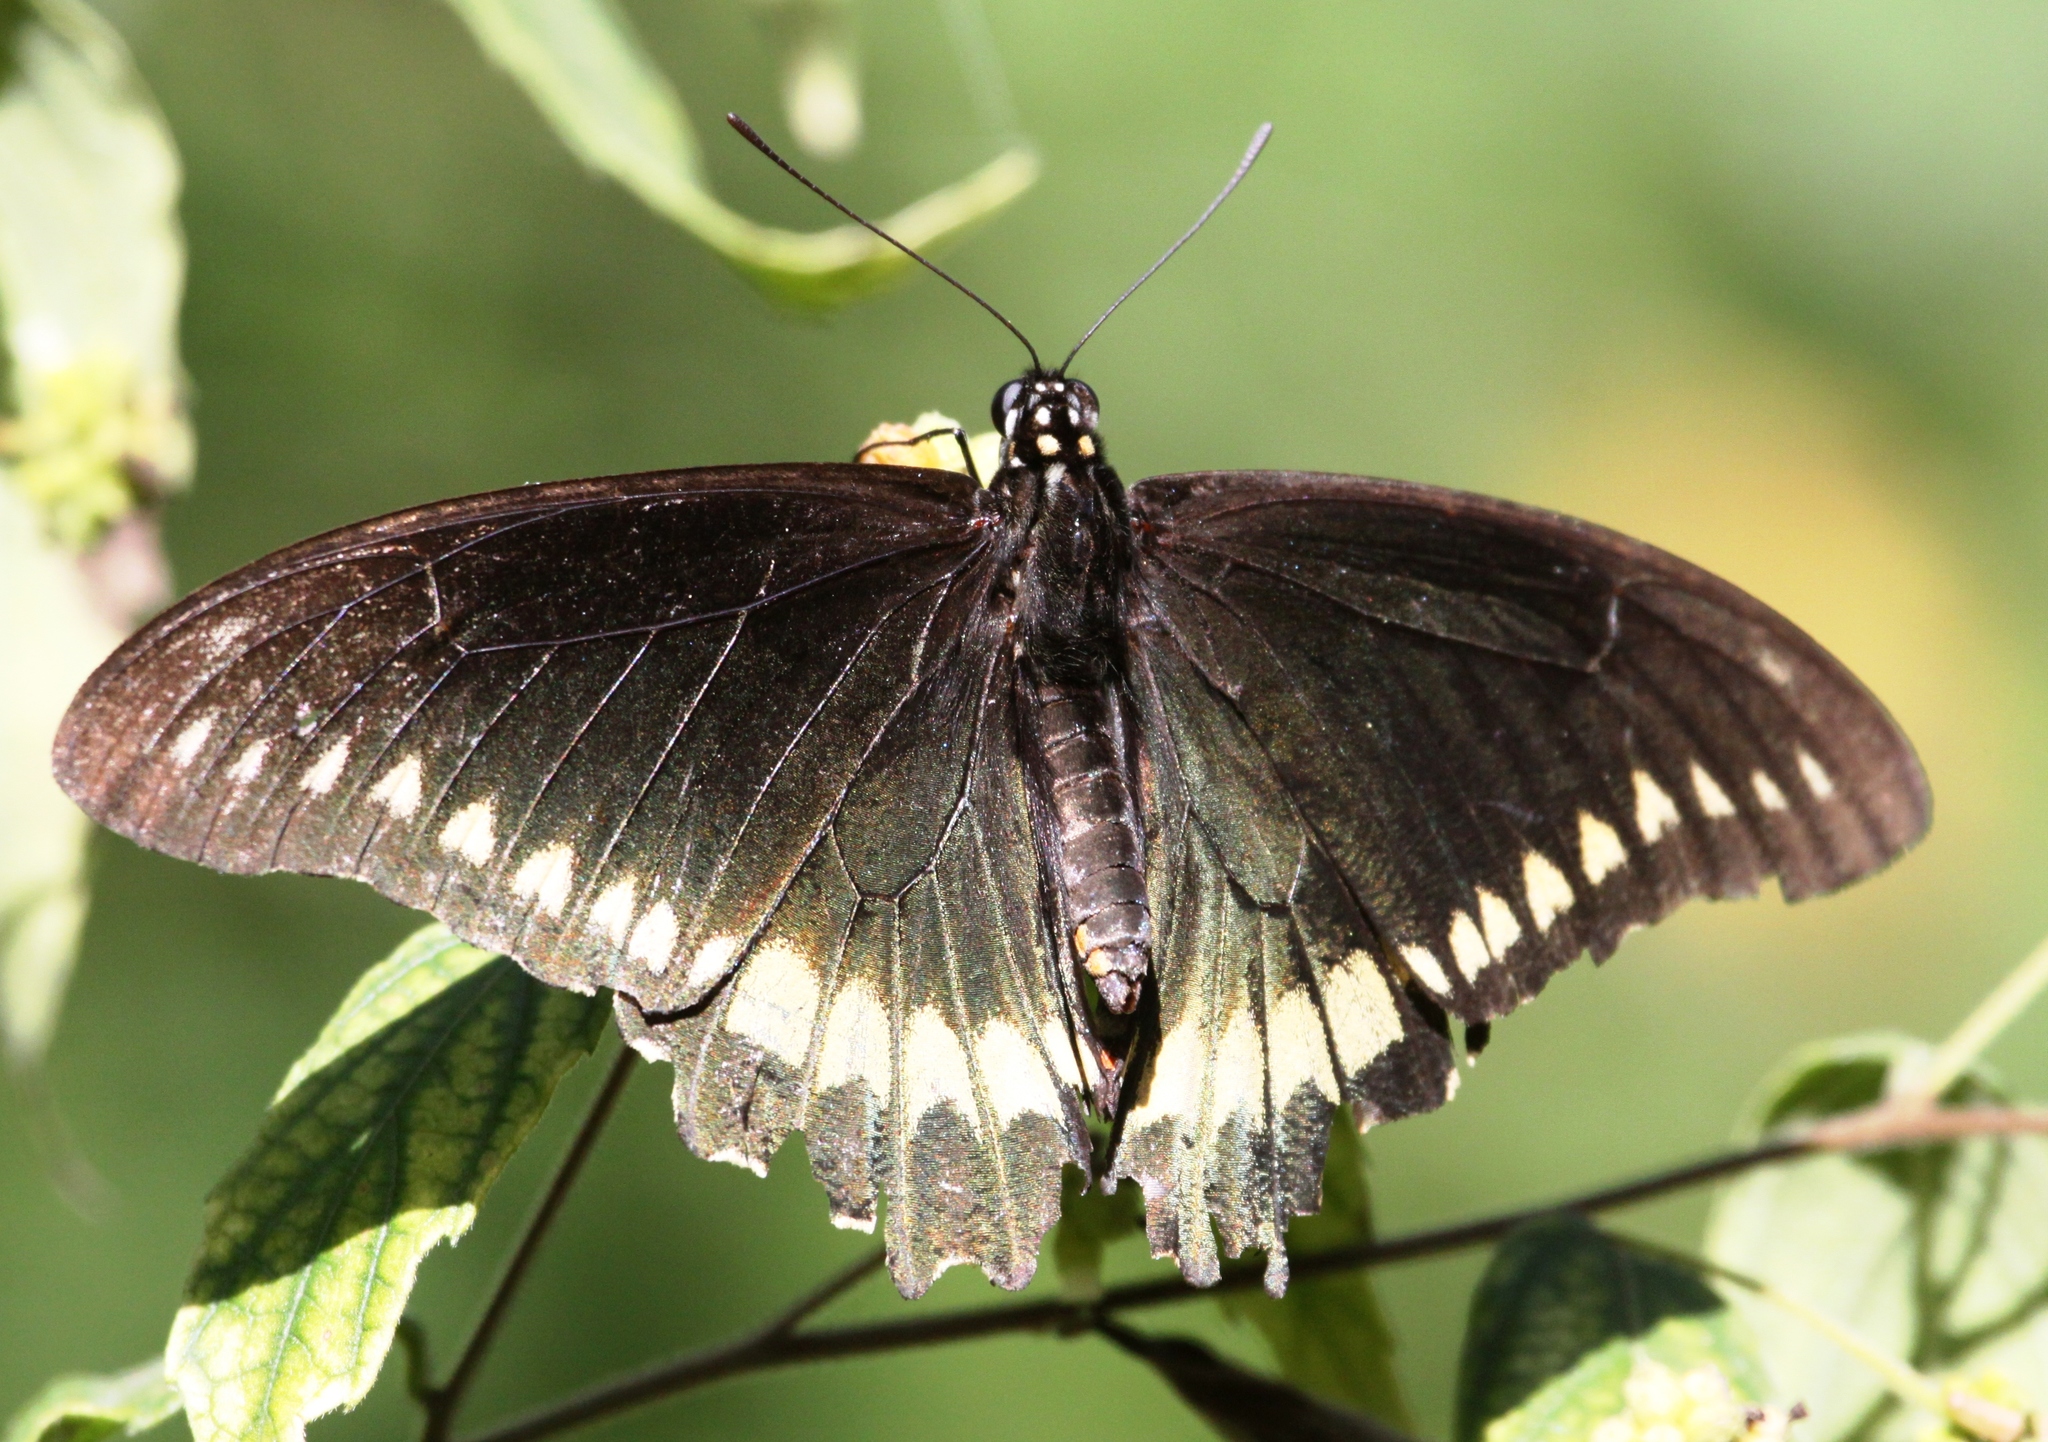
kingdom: Animalia
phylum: Arthropoda
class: Insecta
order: Lepidoptera
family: Papilionidae
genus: Battus
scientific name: Battus polydamas
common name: Polydamas swallowtail
